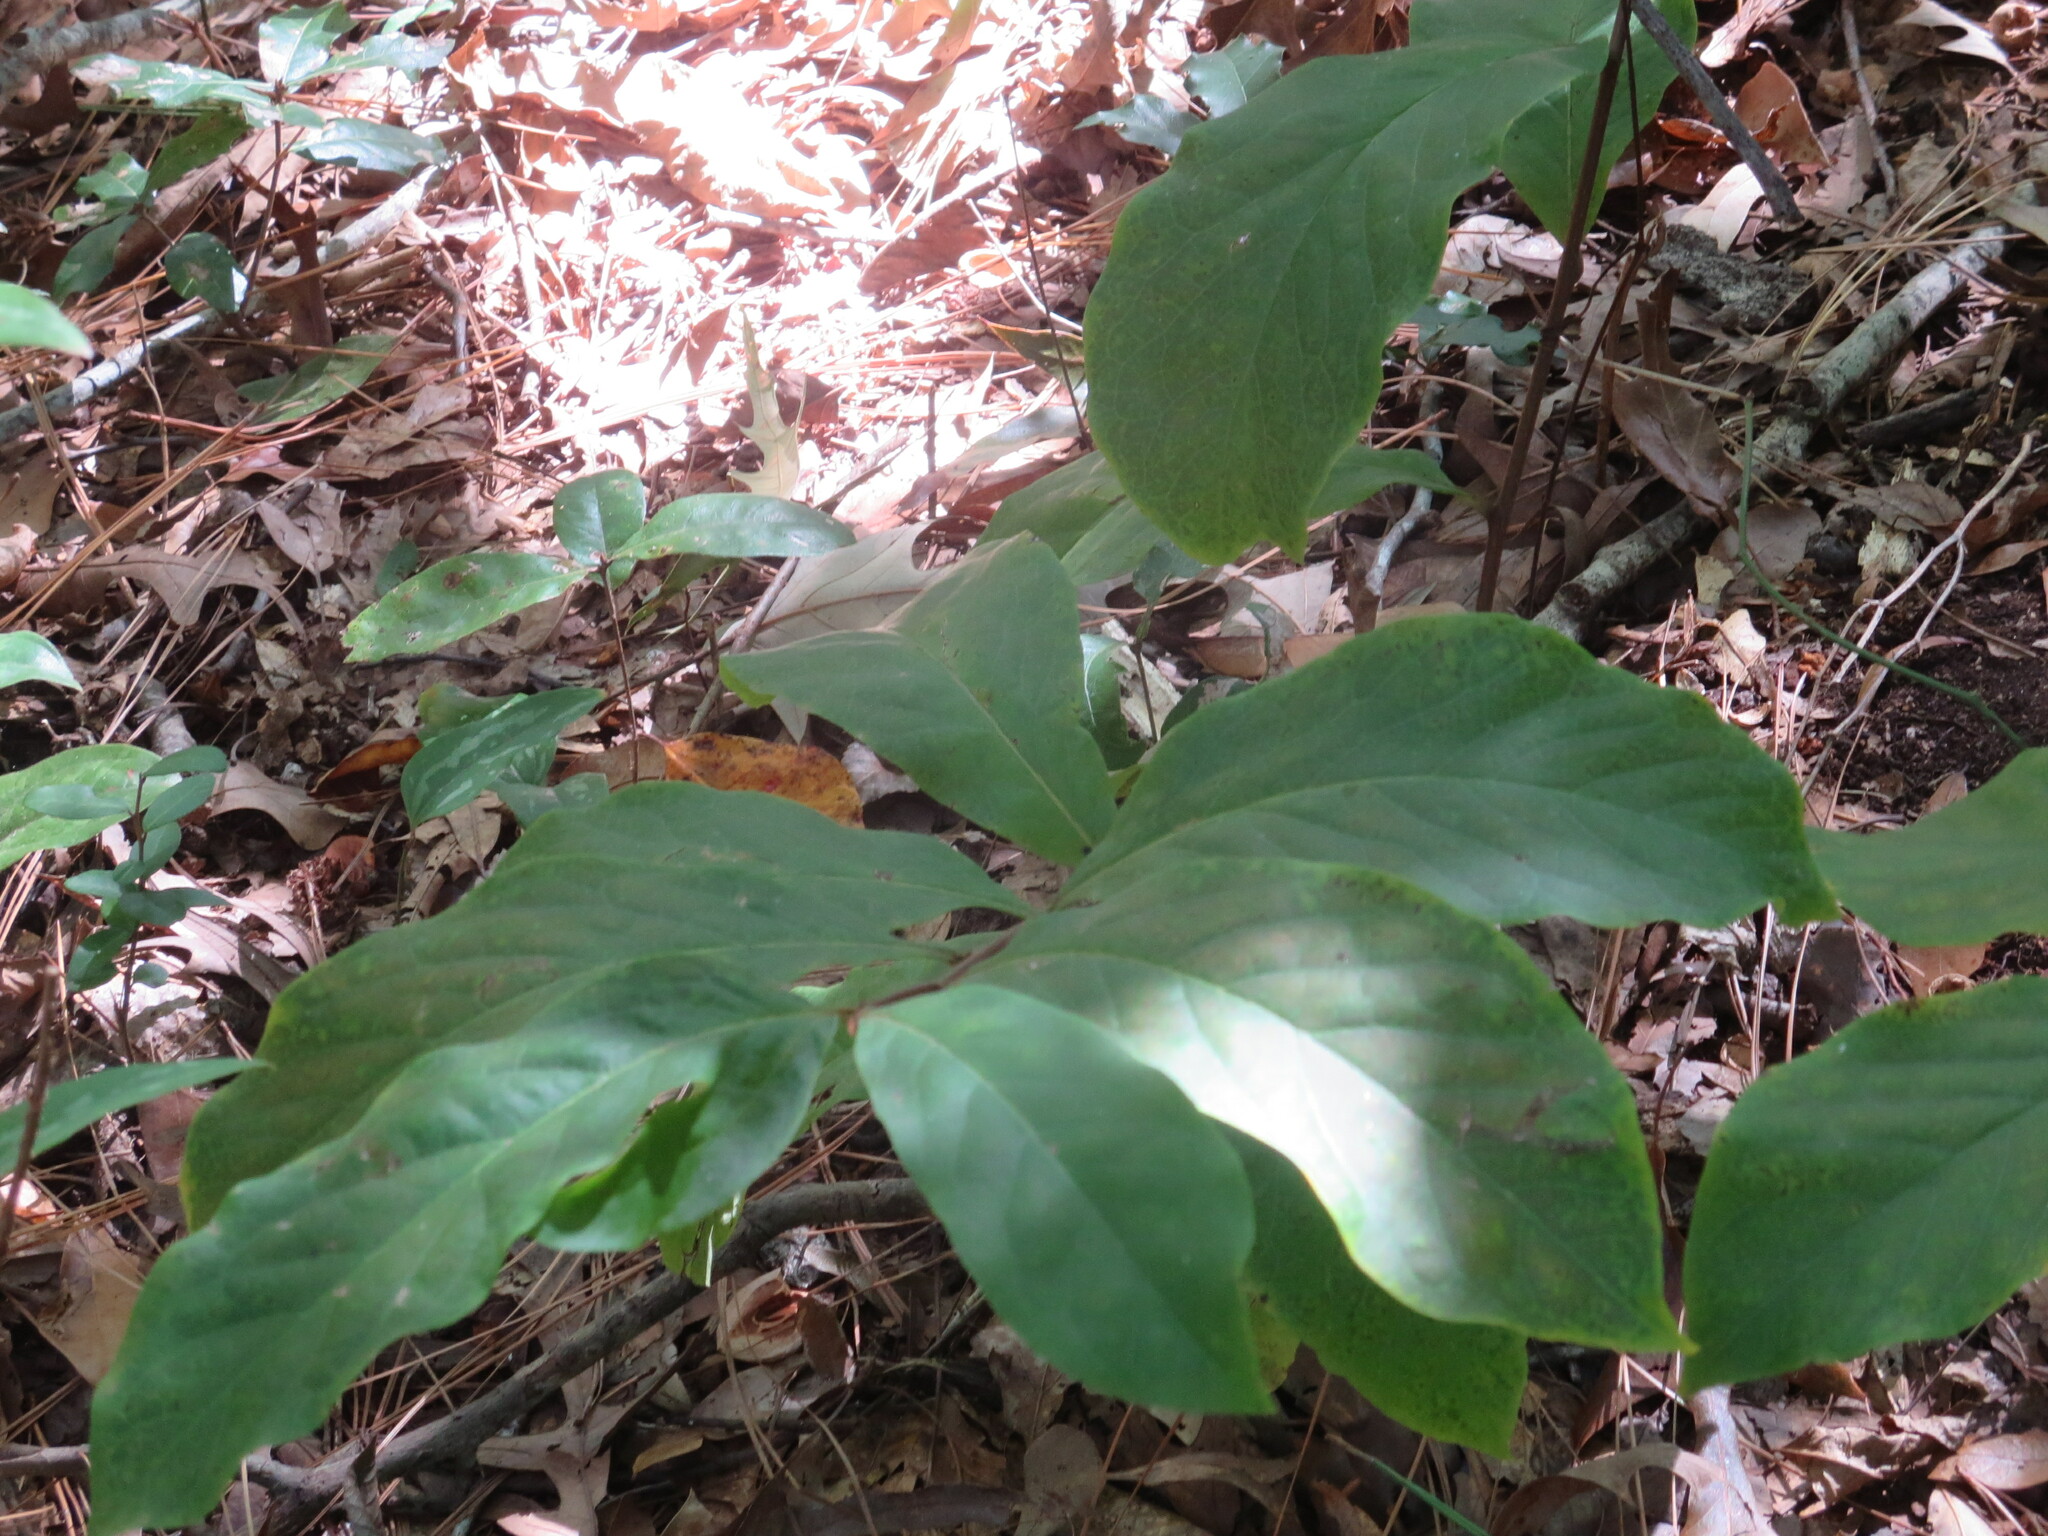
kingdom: Plantae
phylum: Tracheophyta
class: Magnoliopsida
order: Magnoliales
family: Annonaceae
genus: Asimina
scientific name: Asimina parviflora
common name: Dwarf pawpaw
